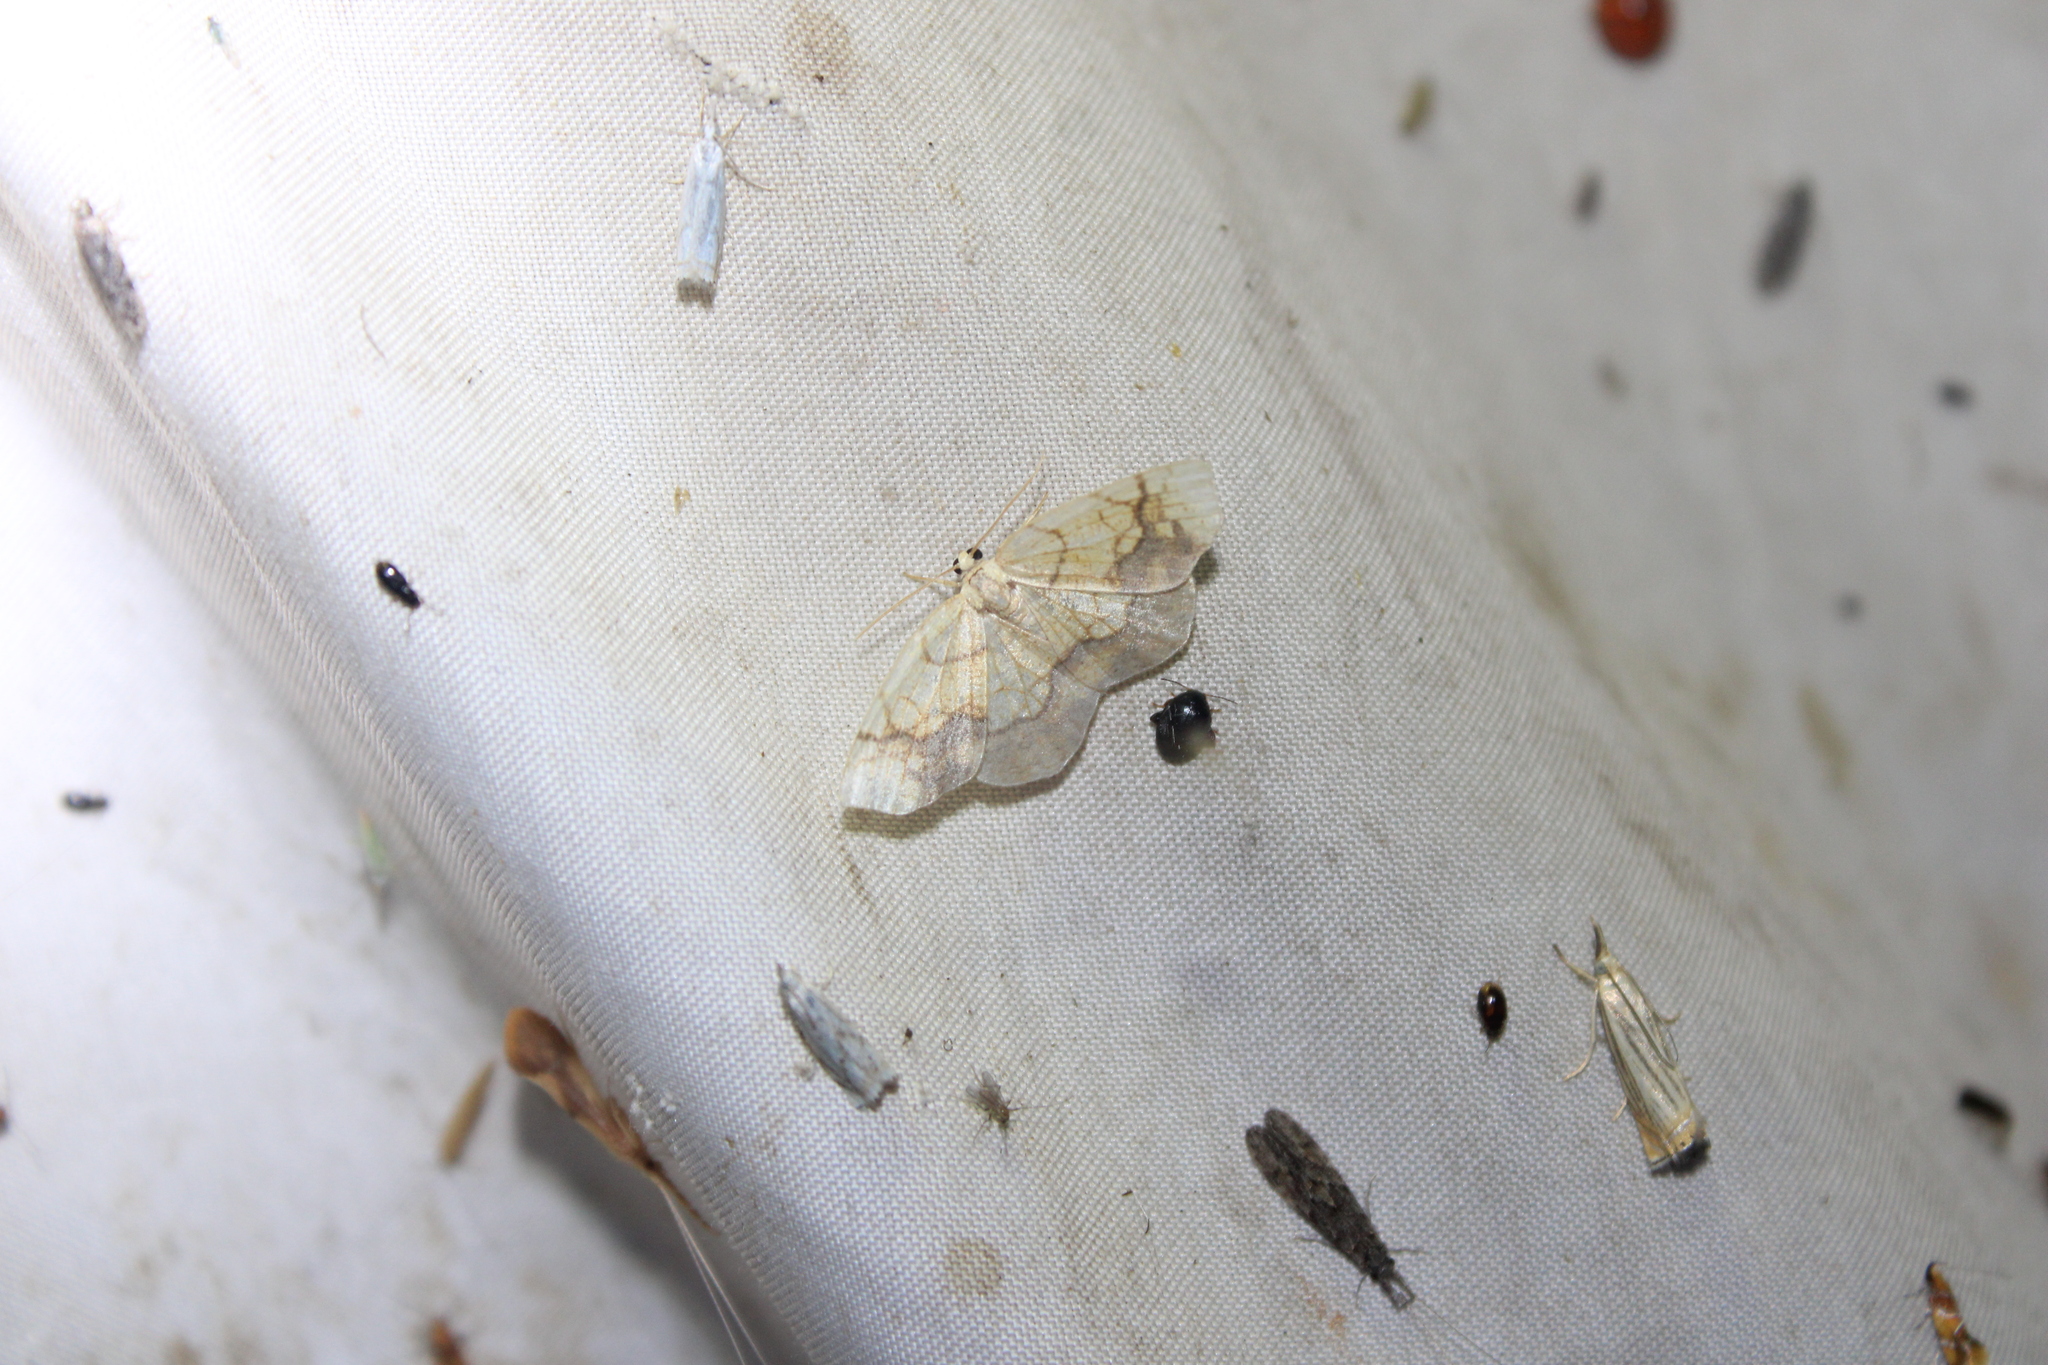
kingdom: Animalia
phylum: Arthropoda
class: Insecta
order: Lepidoptera
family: Geometridae
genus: Nematocampa
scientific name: Nematocampa resistaria
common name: Horned spanworm moth
